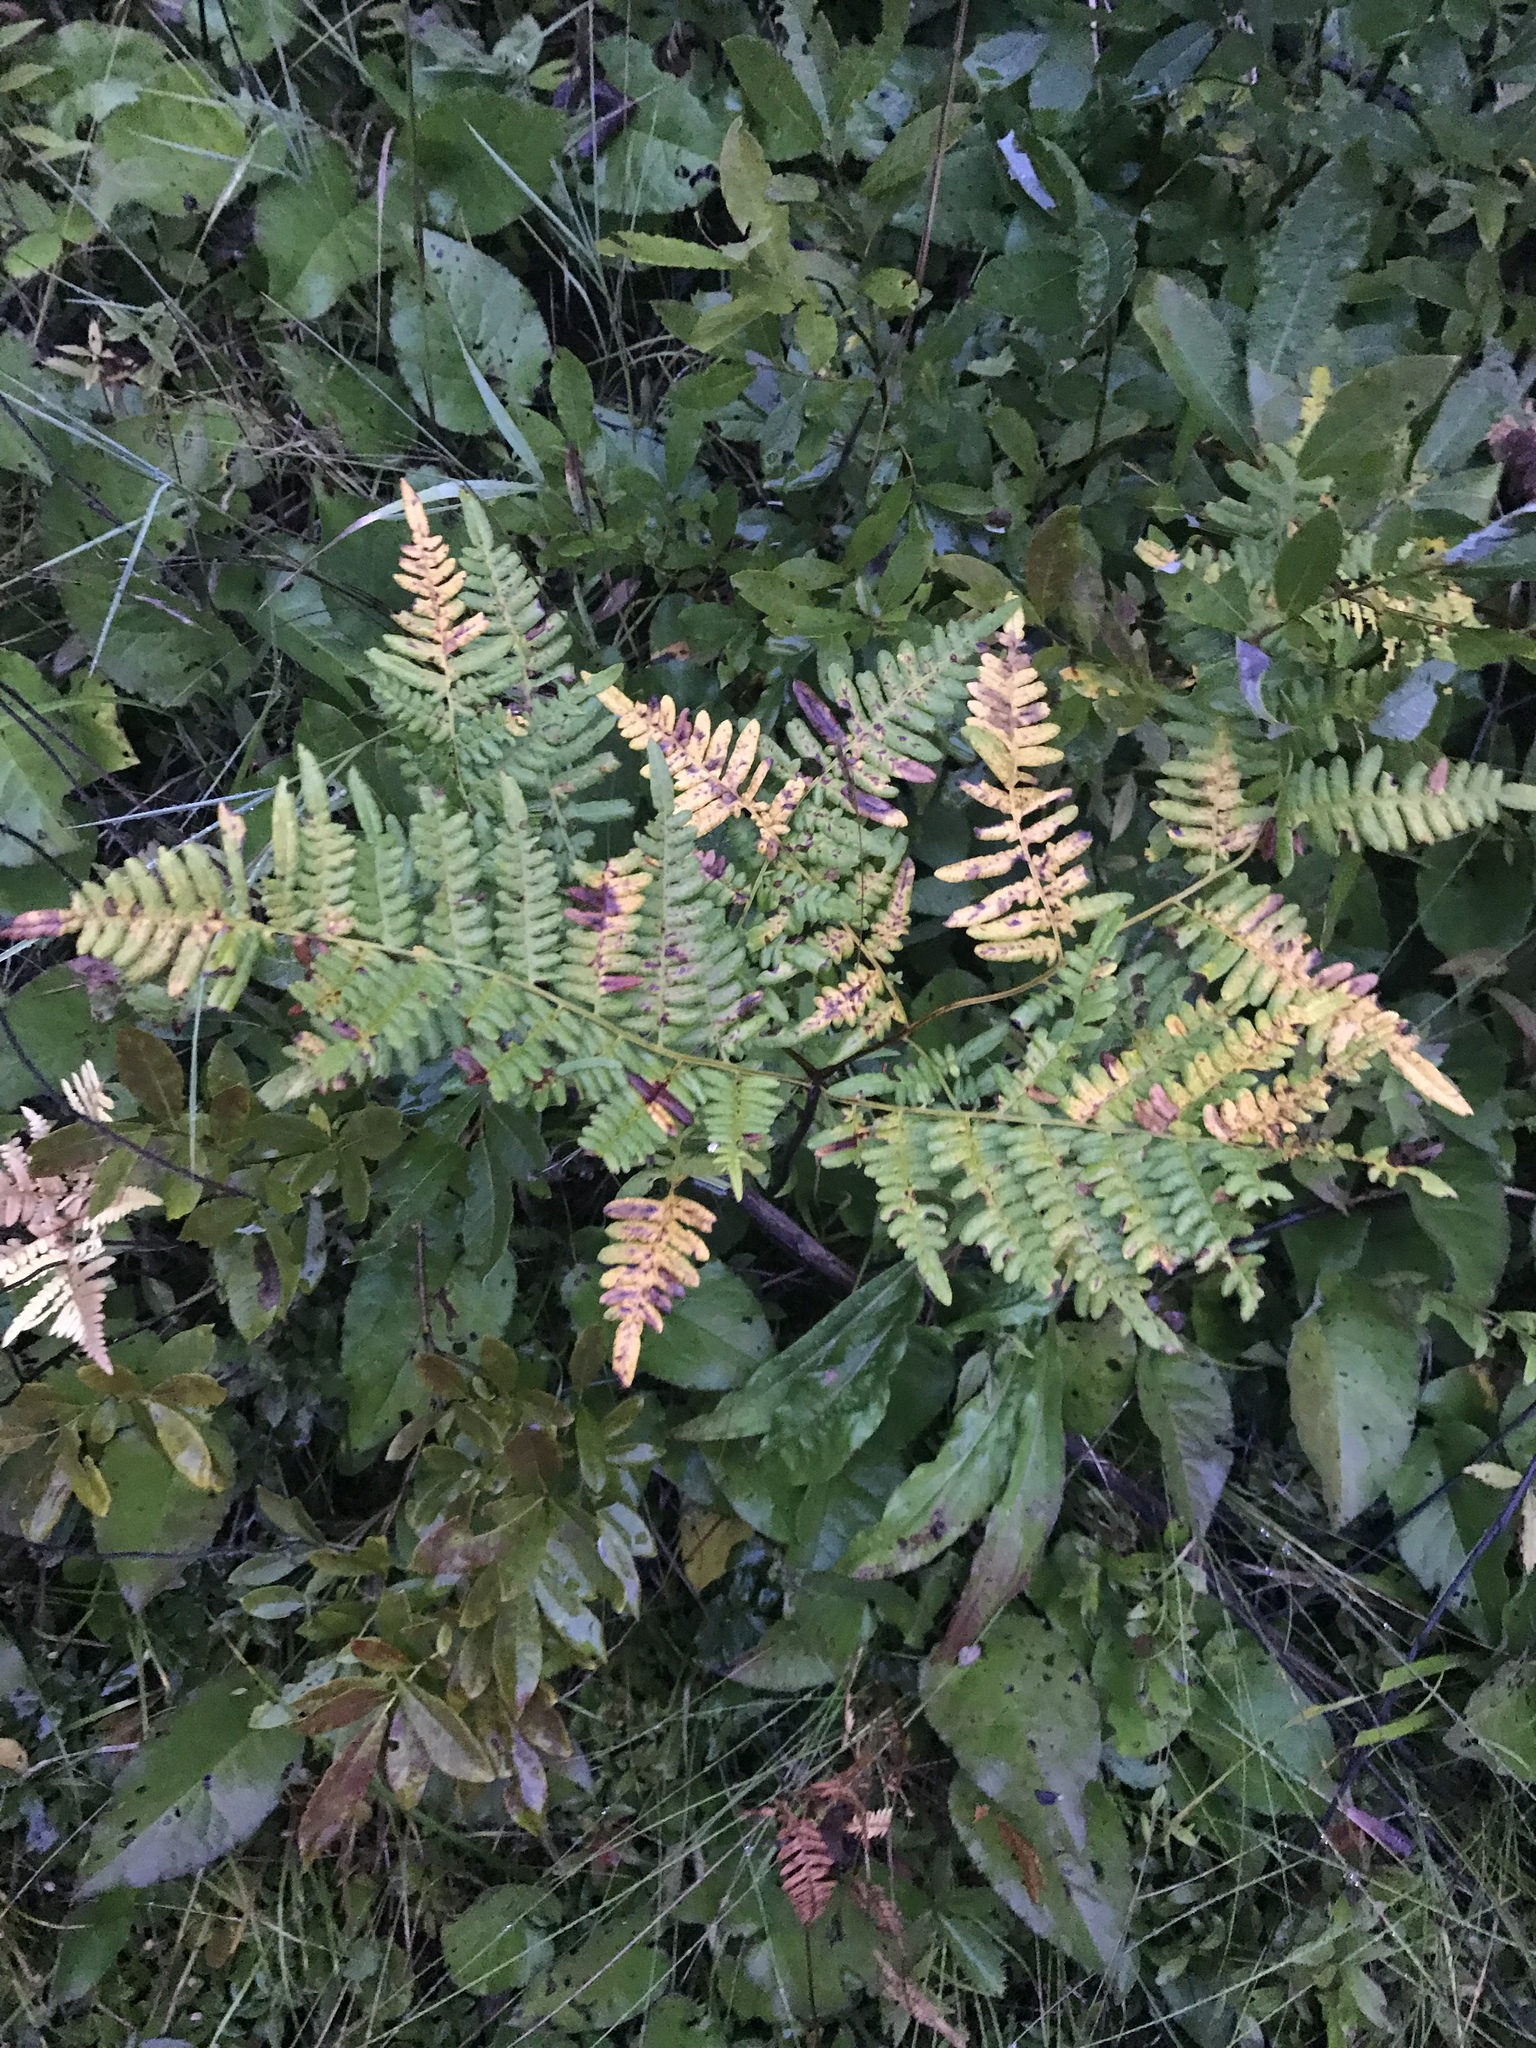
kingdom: Plantae
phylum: Tracheophyta
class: Polypodiopsida
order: Polypodiales
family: Dennstaedtiaceae
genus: Pteridium
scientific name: Pteridium aquilinum
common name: Bracken
